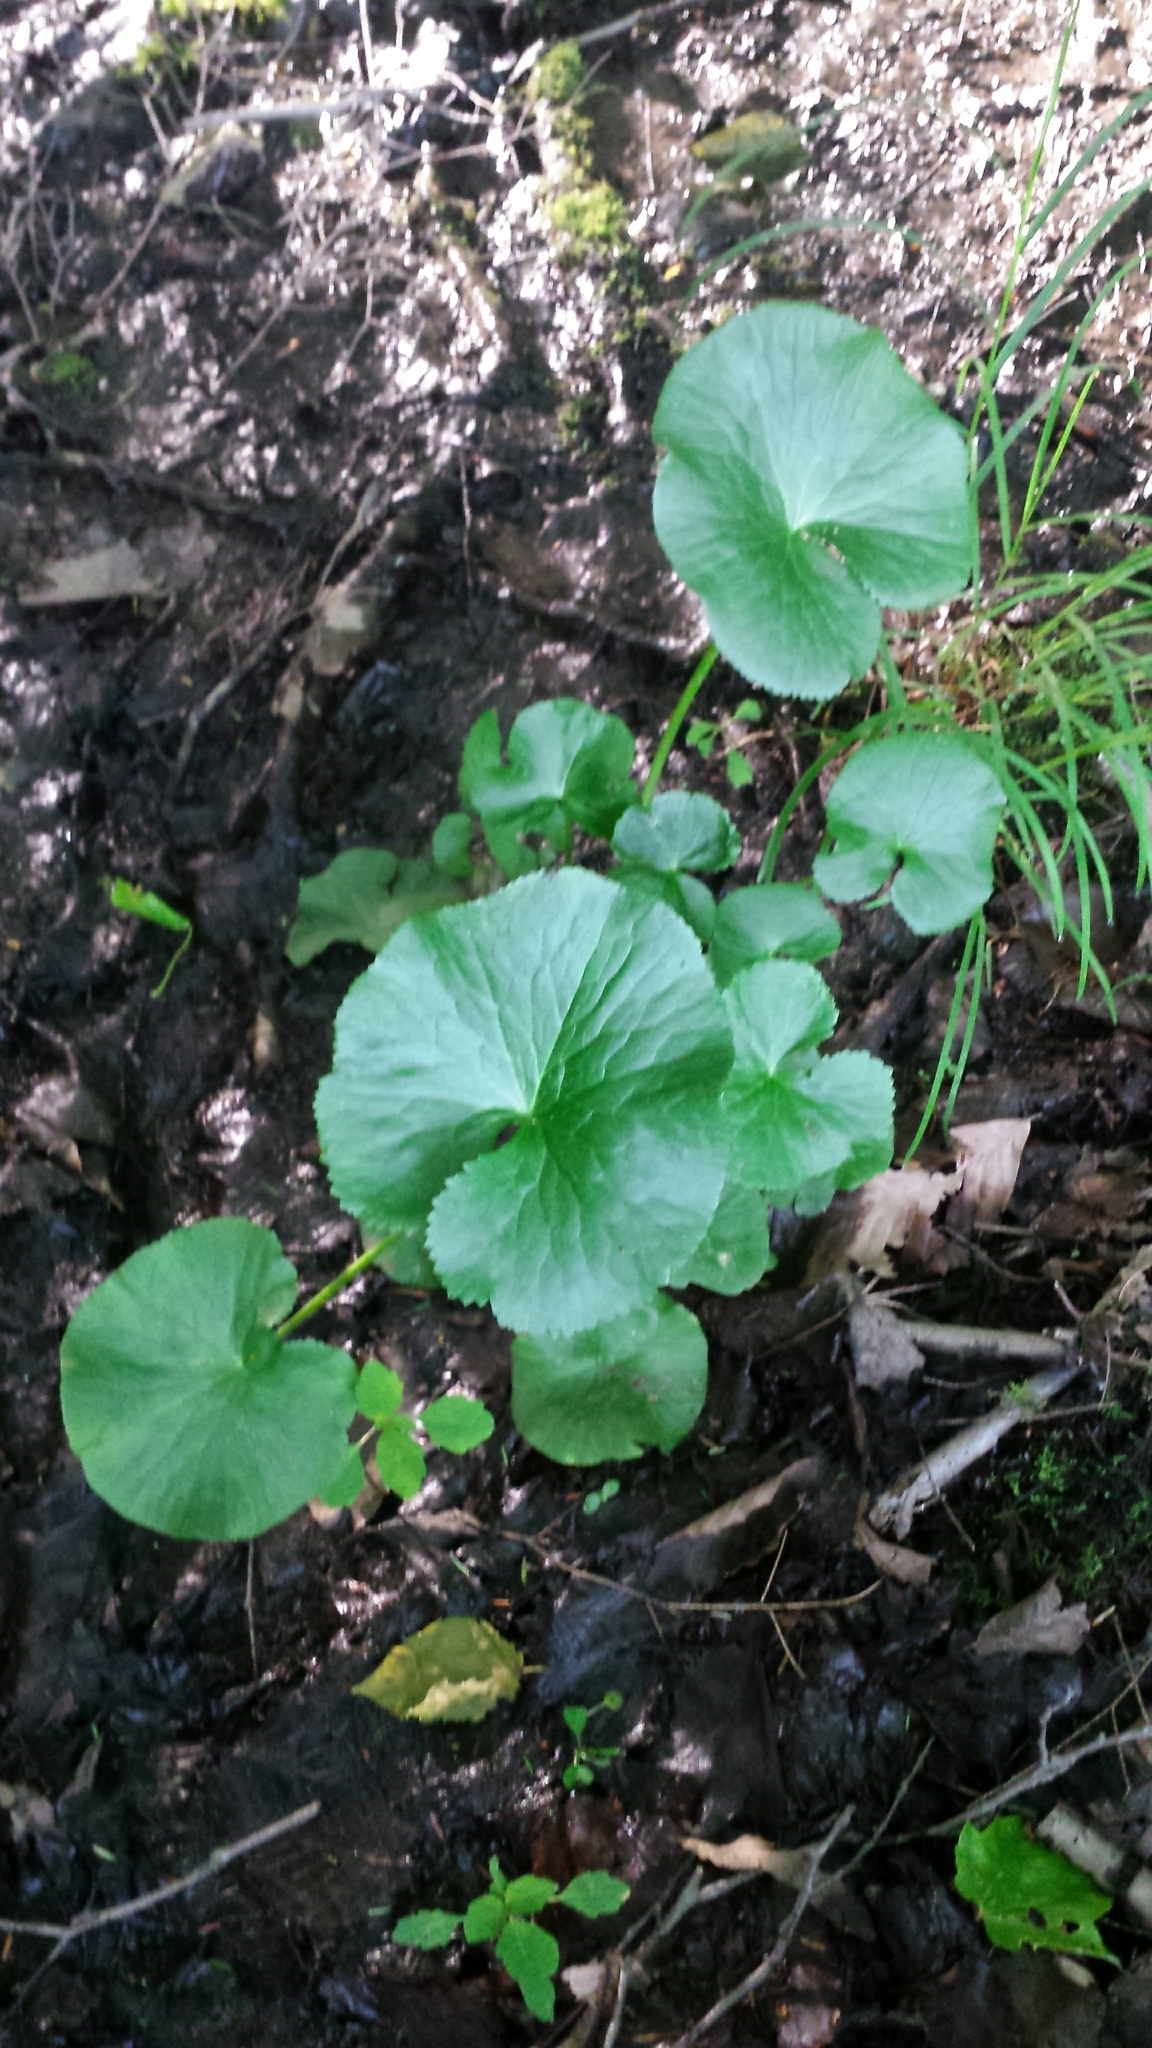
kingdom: Plantae
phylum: Tracheophyta
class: Magnoliopsida
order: Ranunculales
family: Ranunculaceae
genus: Caltha
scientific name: Caltha palustris
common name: Marsh marigold
